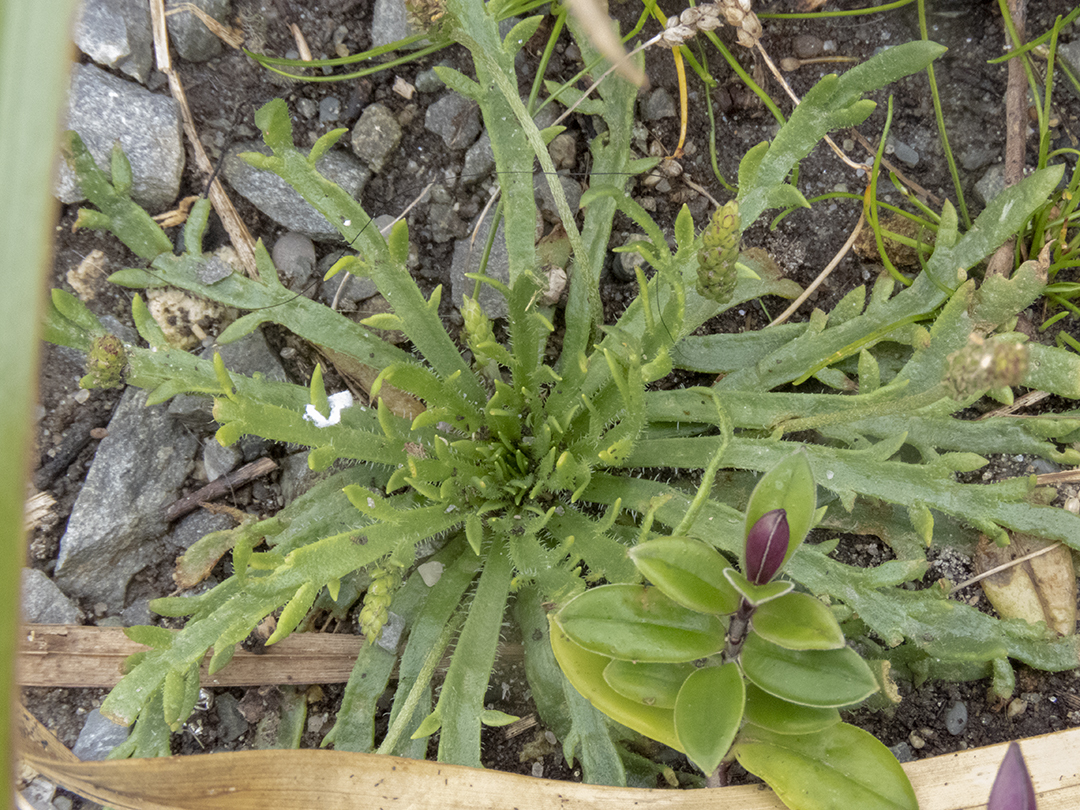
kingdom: Plantae
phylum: Tracheophyta
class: Magnoliopsida
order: Lamiales
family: Plantaginaceae
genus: Plantago
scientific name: Plantago coronopus
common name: Buck's-horn plantain
